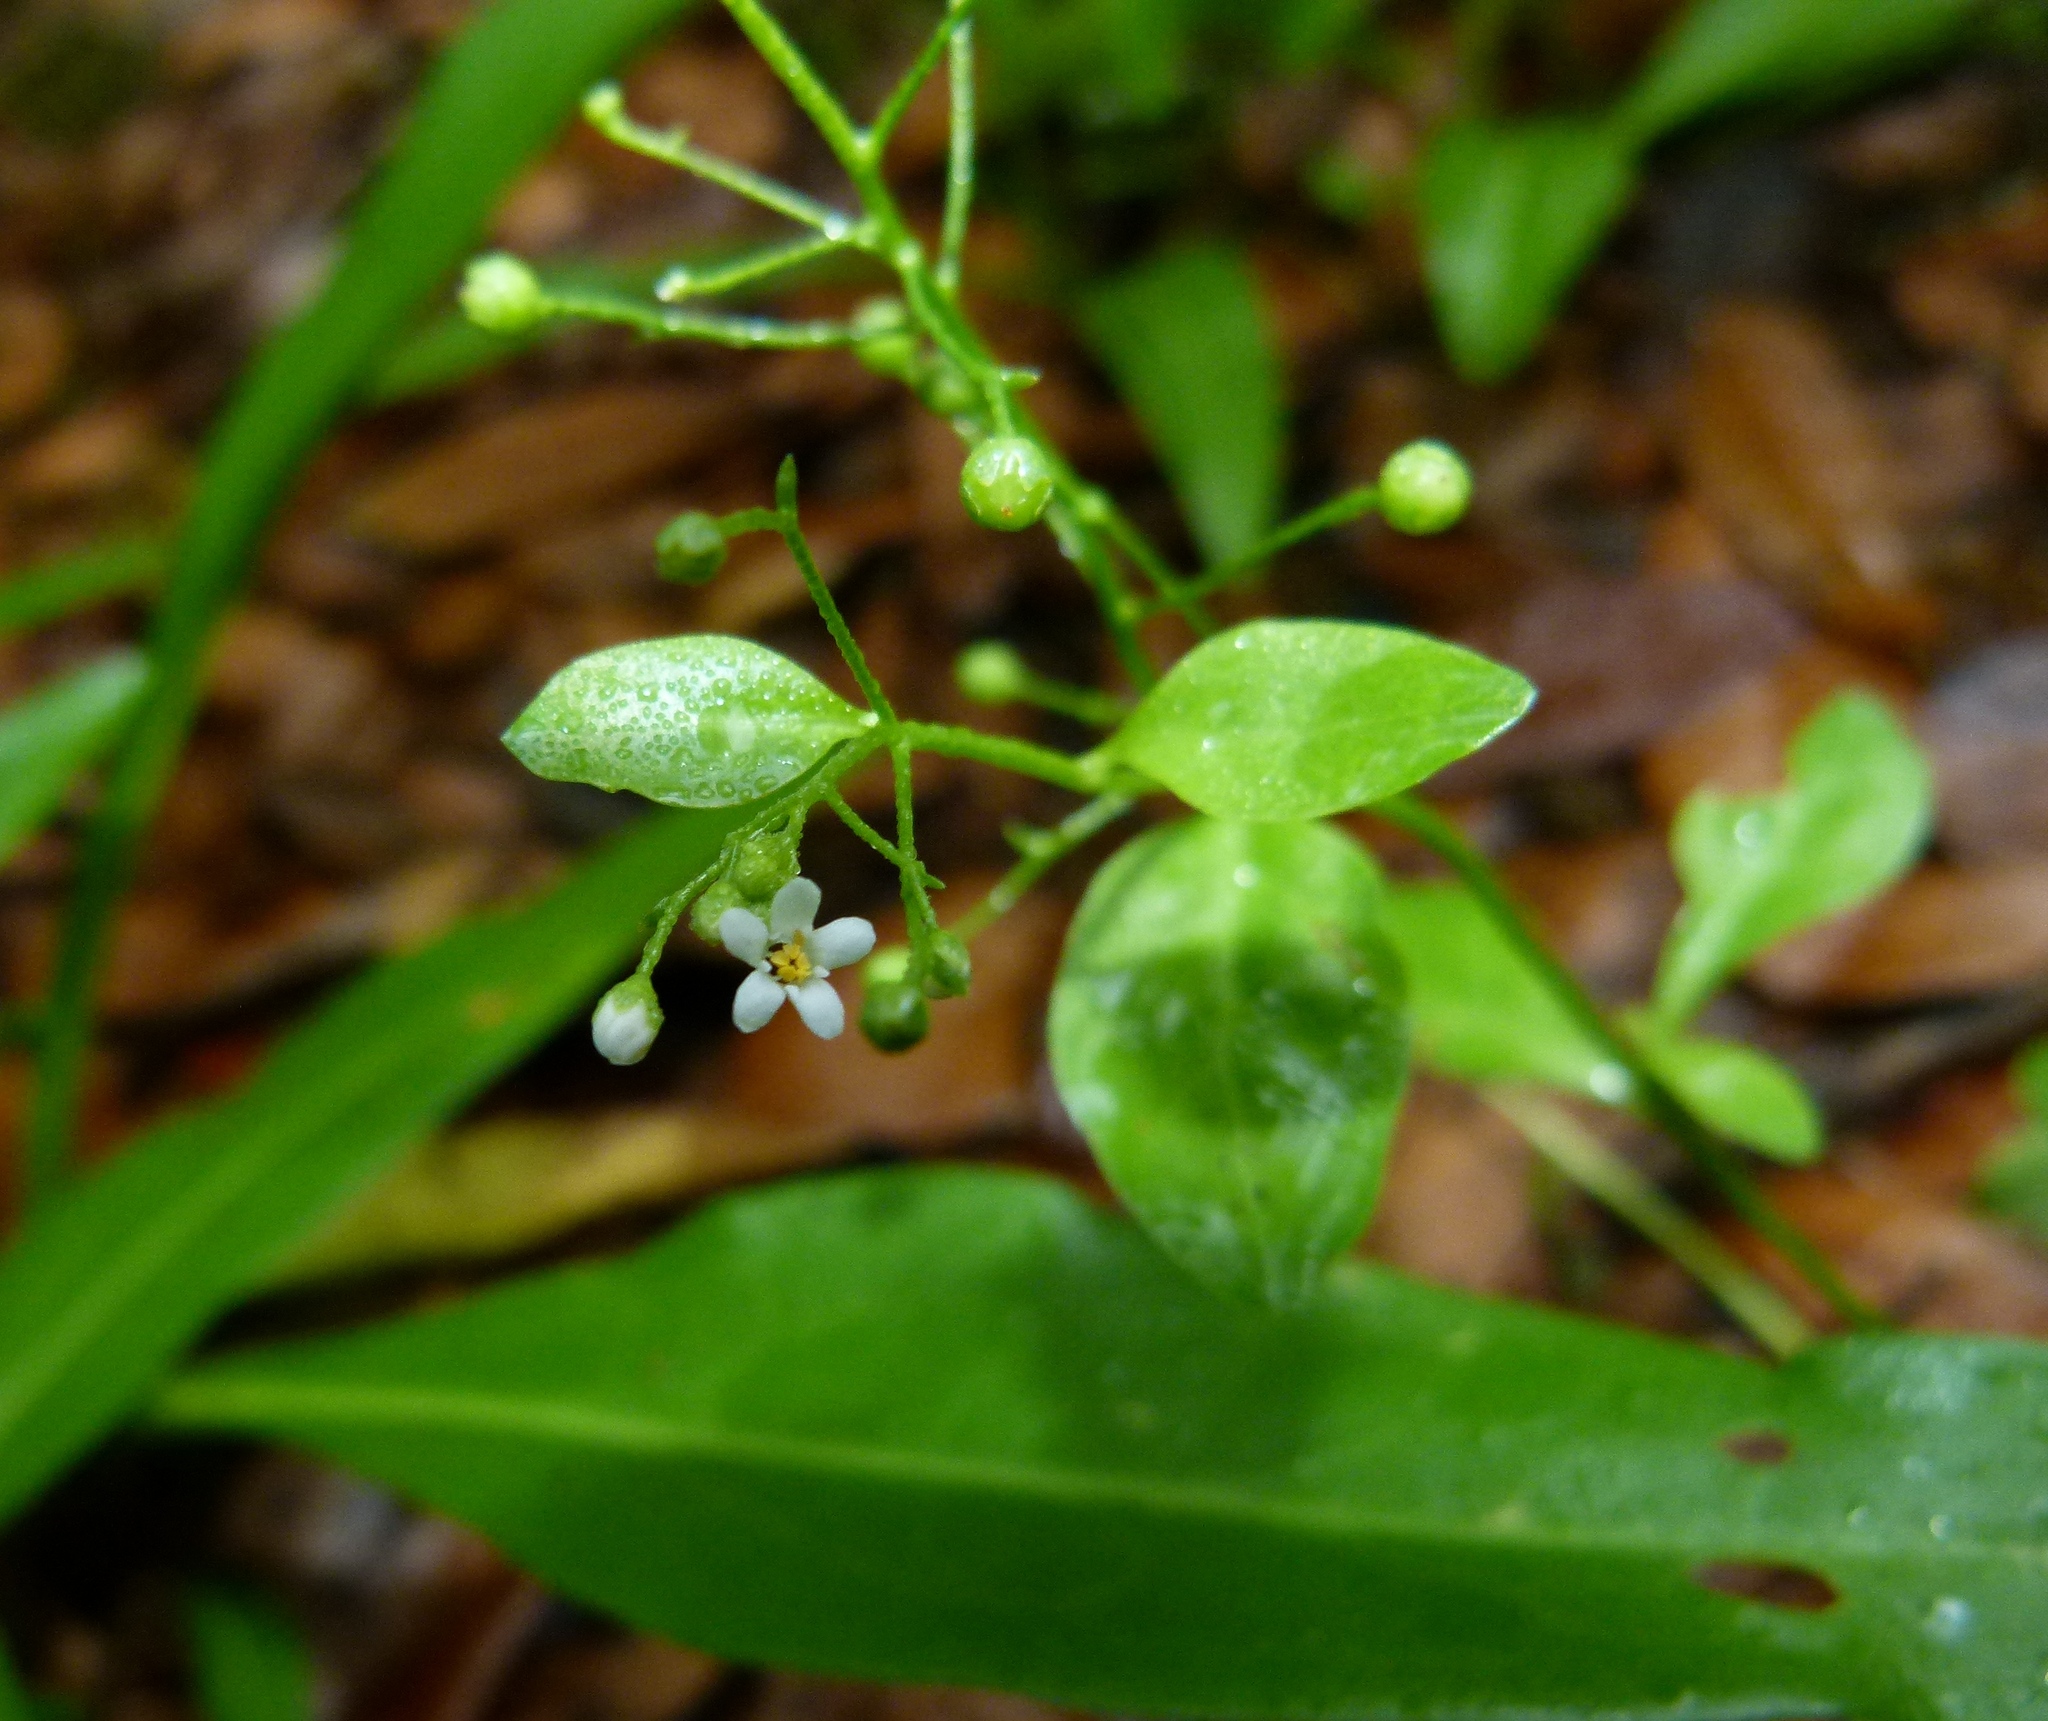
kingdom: Plantae
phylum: Tracheophyta
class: Magnoliopsida
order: Ericales
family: Primulaceae
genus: Samolus
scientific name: Samolus parviflorus
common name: False water pimpernel
